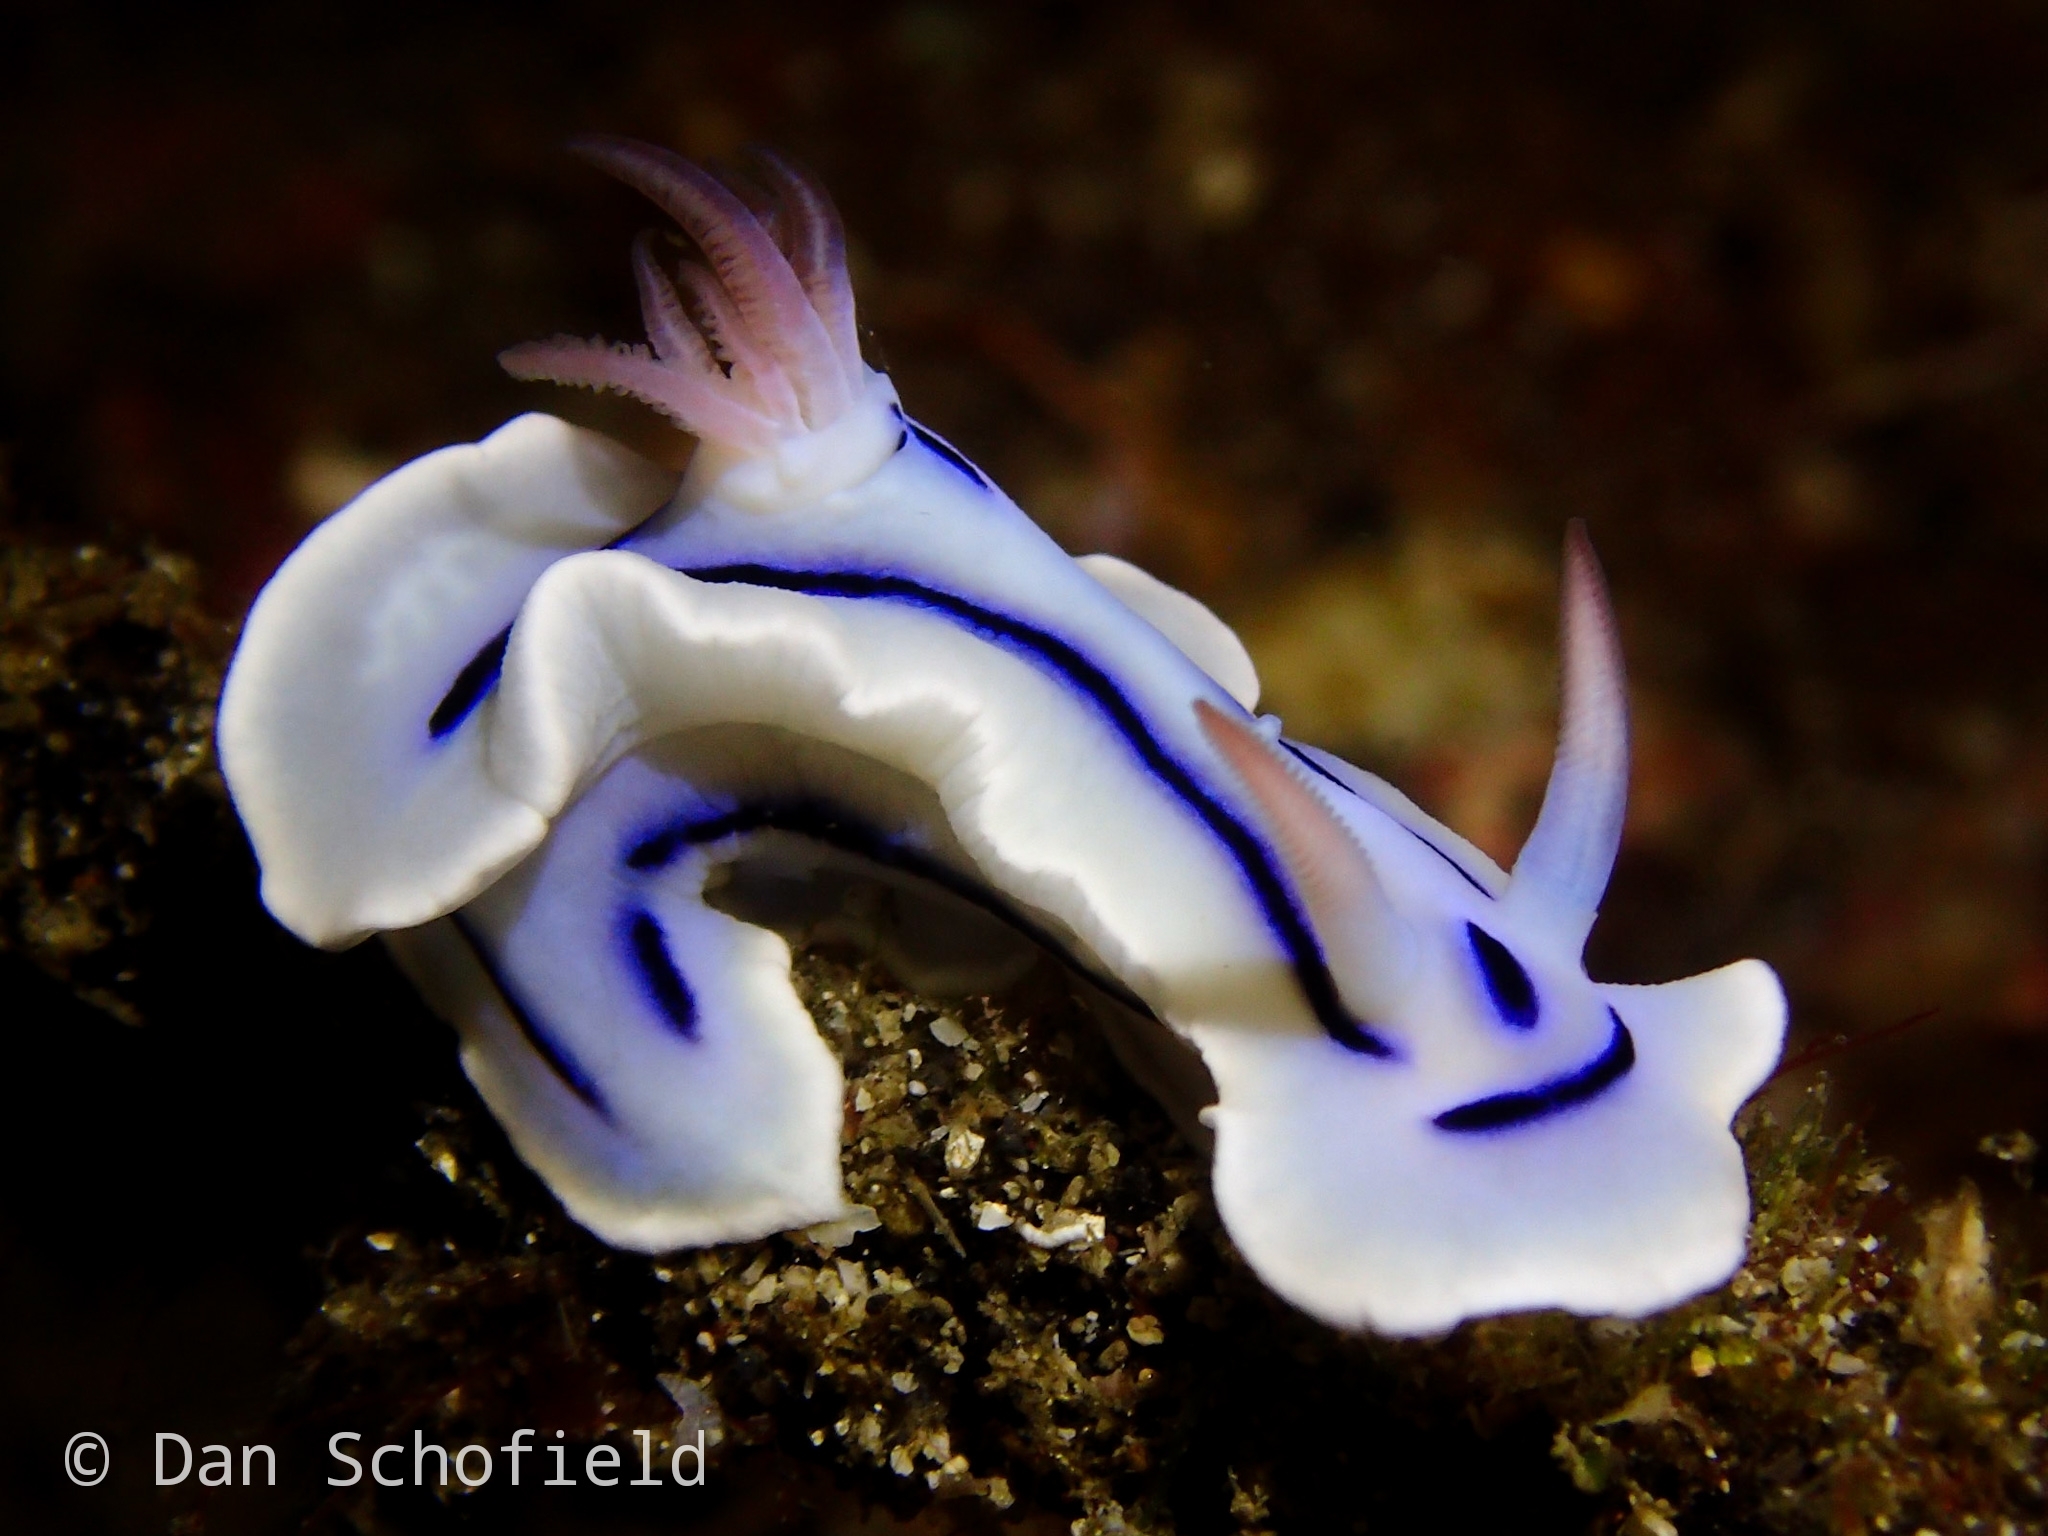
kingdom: Animalia
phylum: Mollusca
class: Gastropoda
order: Nudibranchia
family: Chromodorididae
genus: Chromodoris
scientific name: Chromodoris lochi
